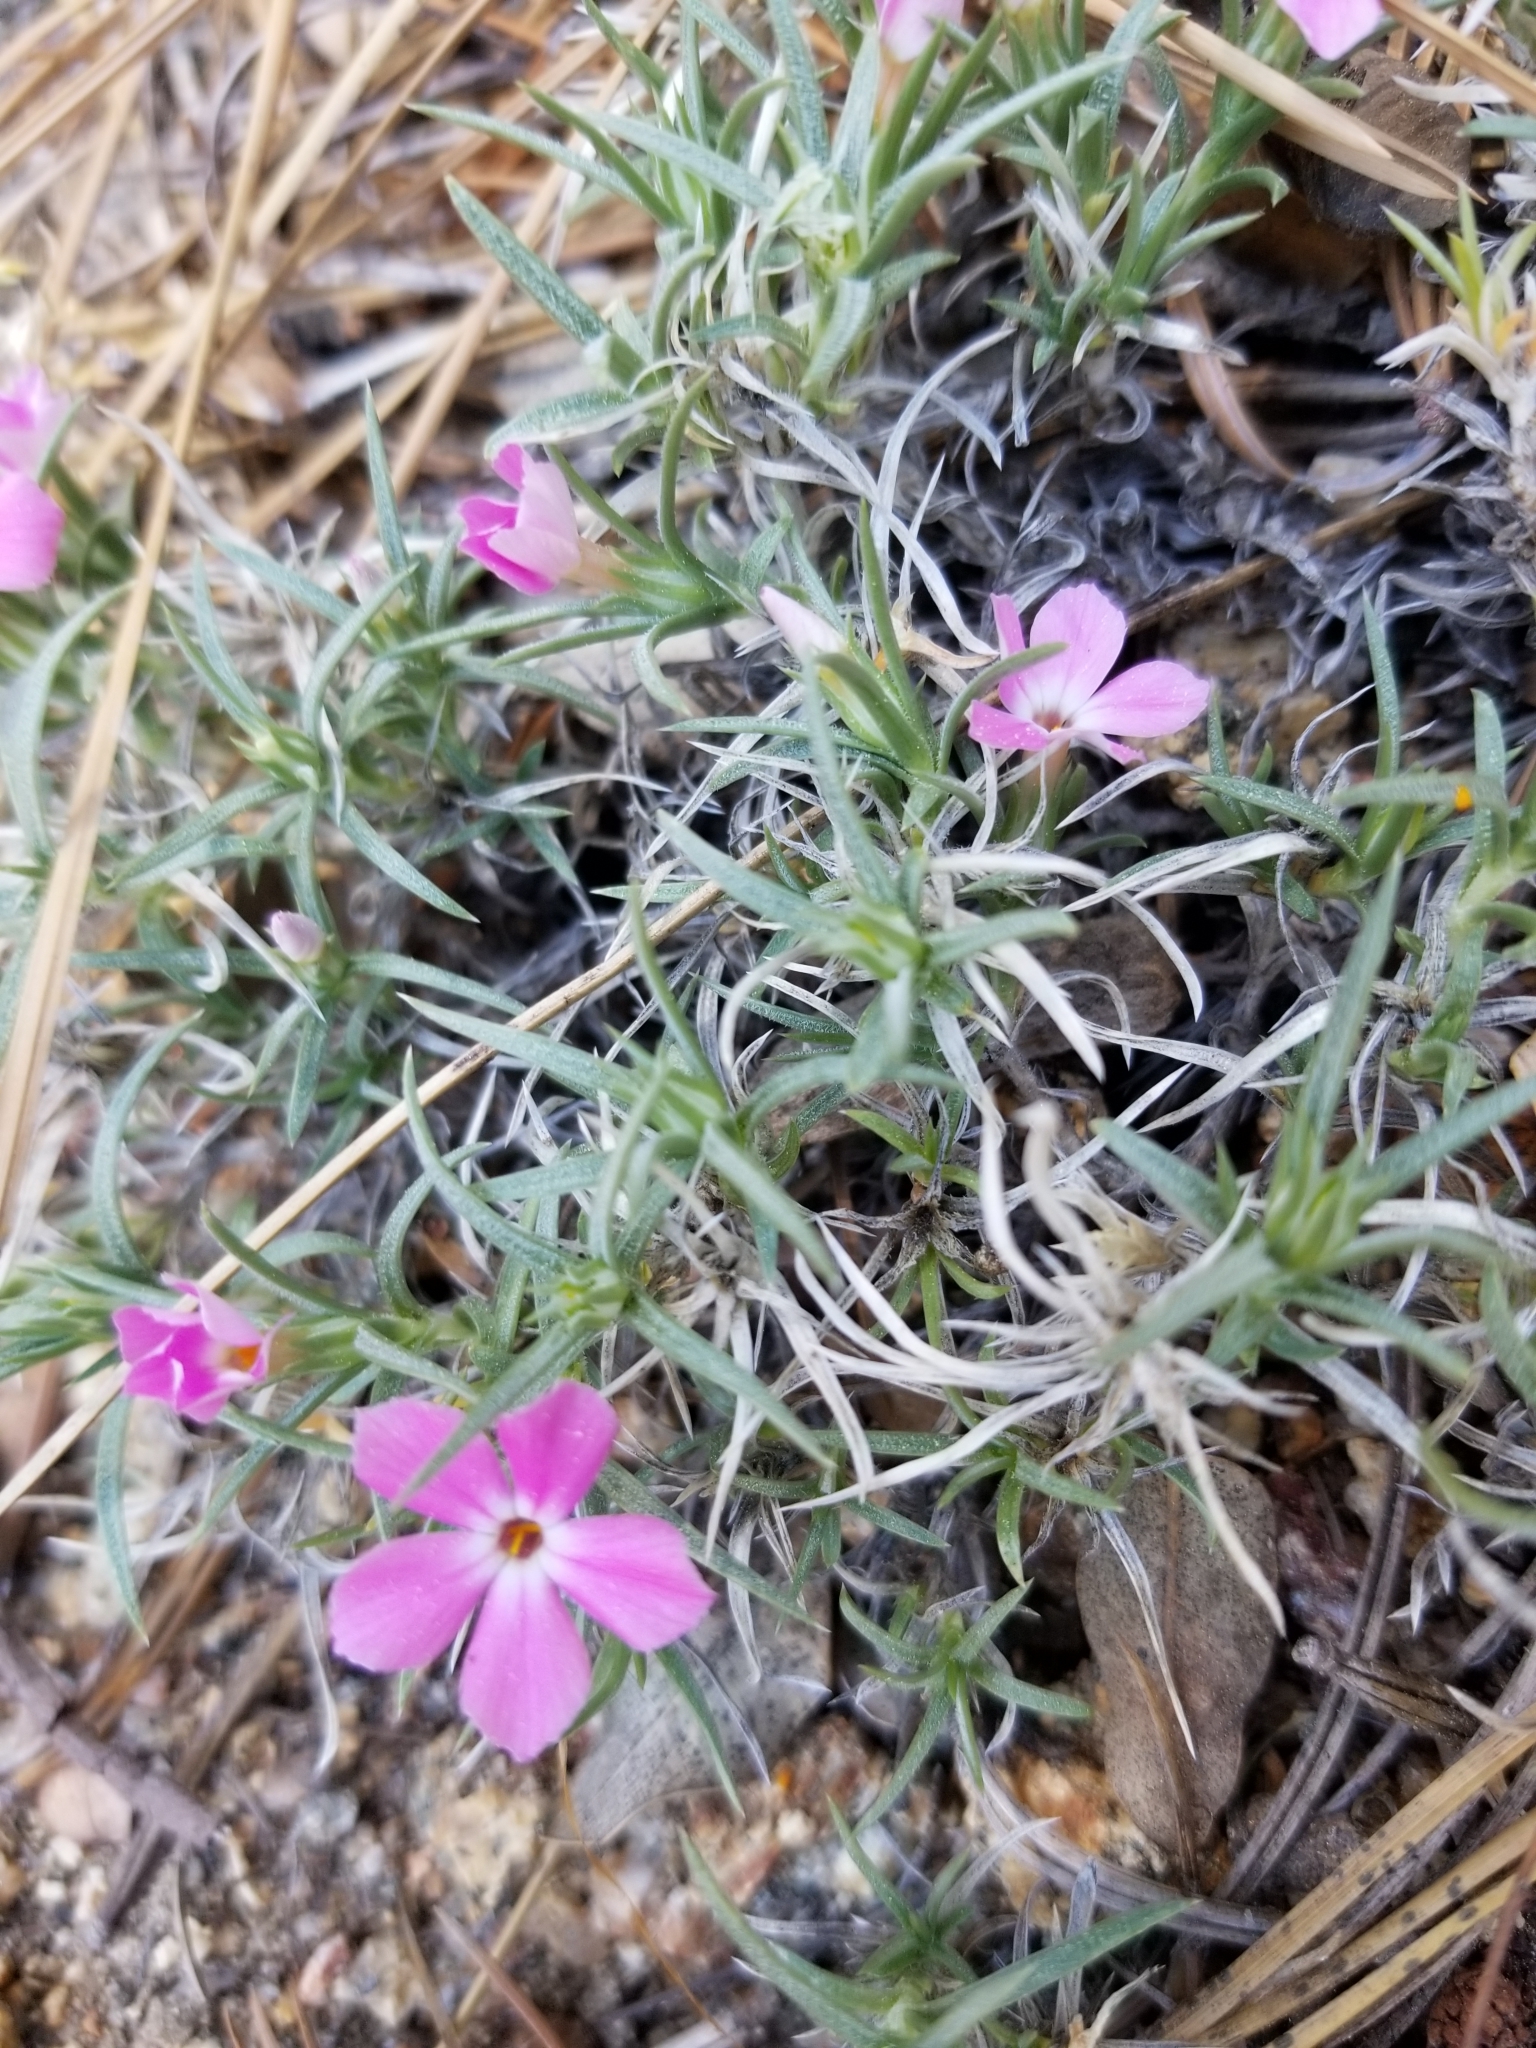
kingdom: Plantae
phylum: Tracheophyta
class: Magnoliopsida
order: Ericales
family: Polemoniaceae
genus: Phlox
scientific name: Phlox austromontana
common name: Desert phlox
